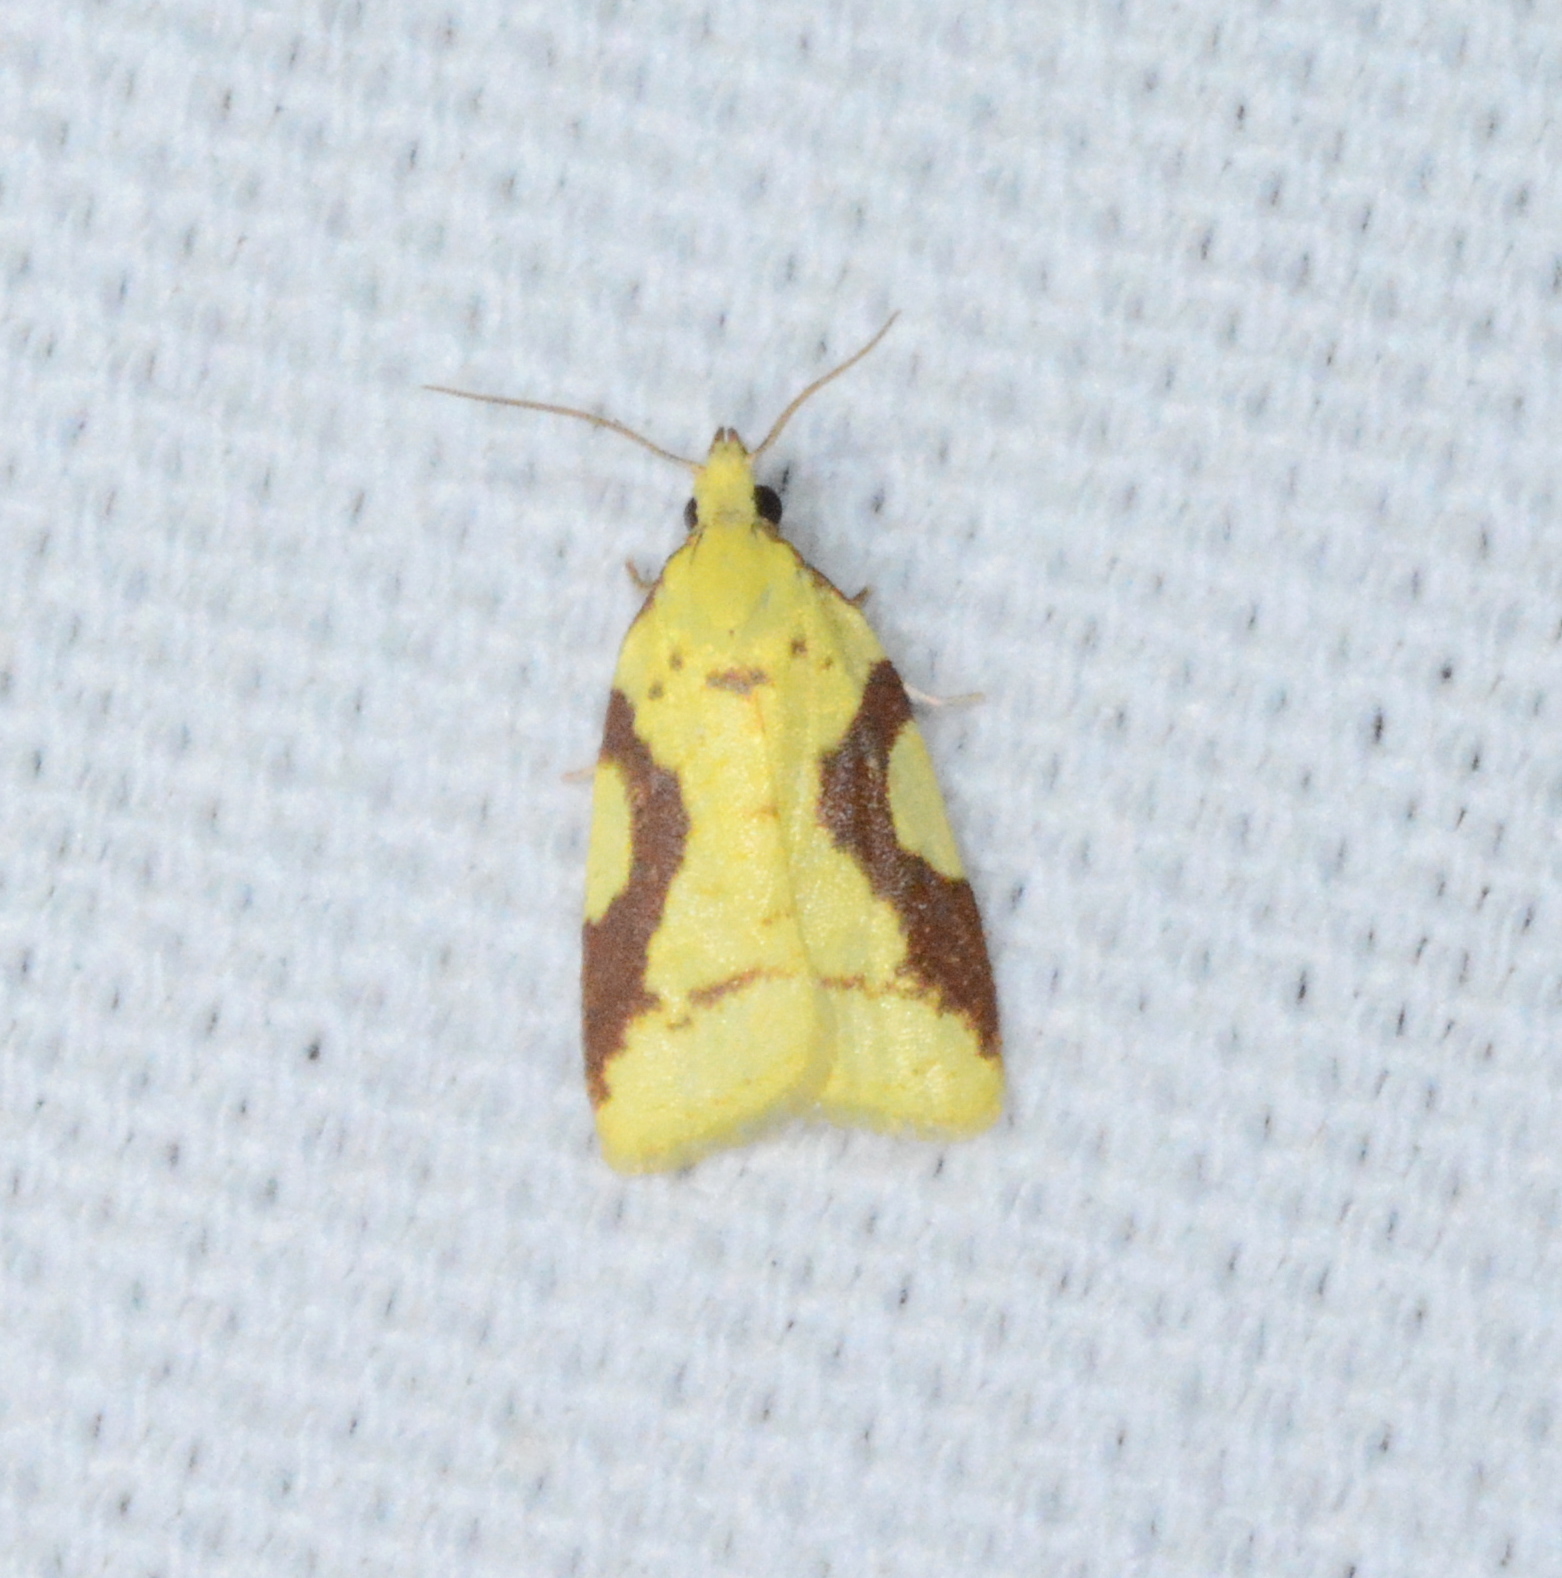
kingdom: Animalia
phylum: Arthropoda
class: Insecta
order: Lepidoptera
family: Tortricidae
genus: Cenopis
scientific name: Cenopis niveana
